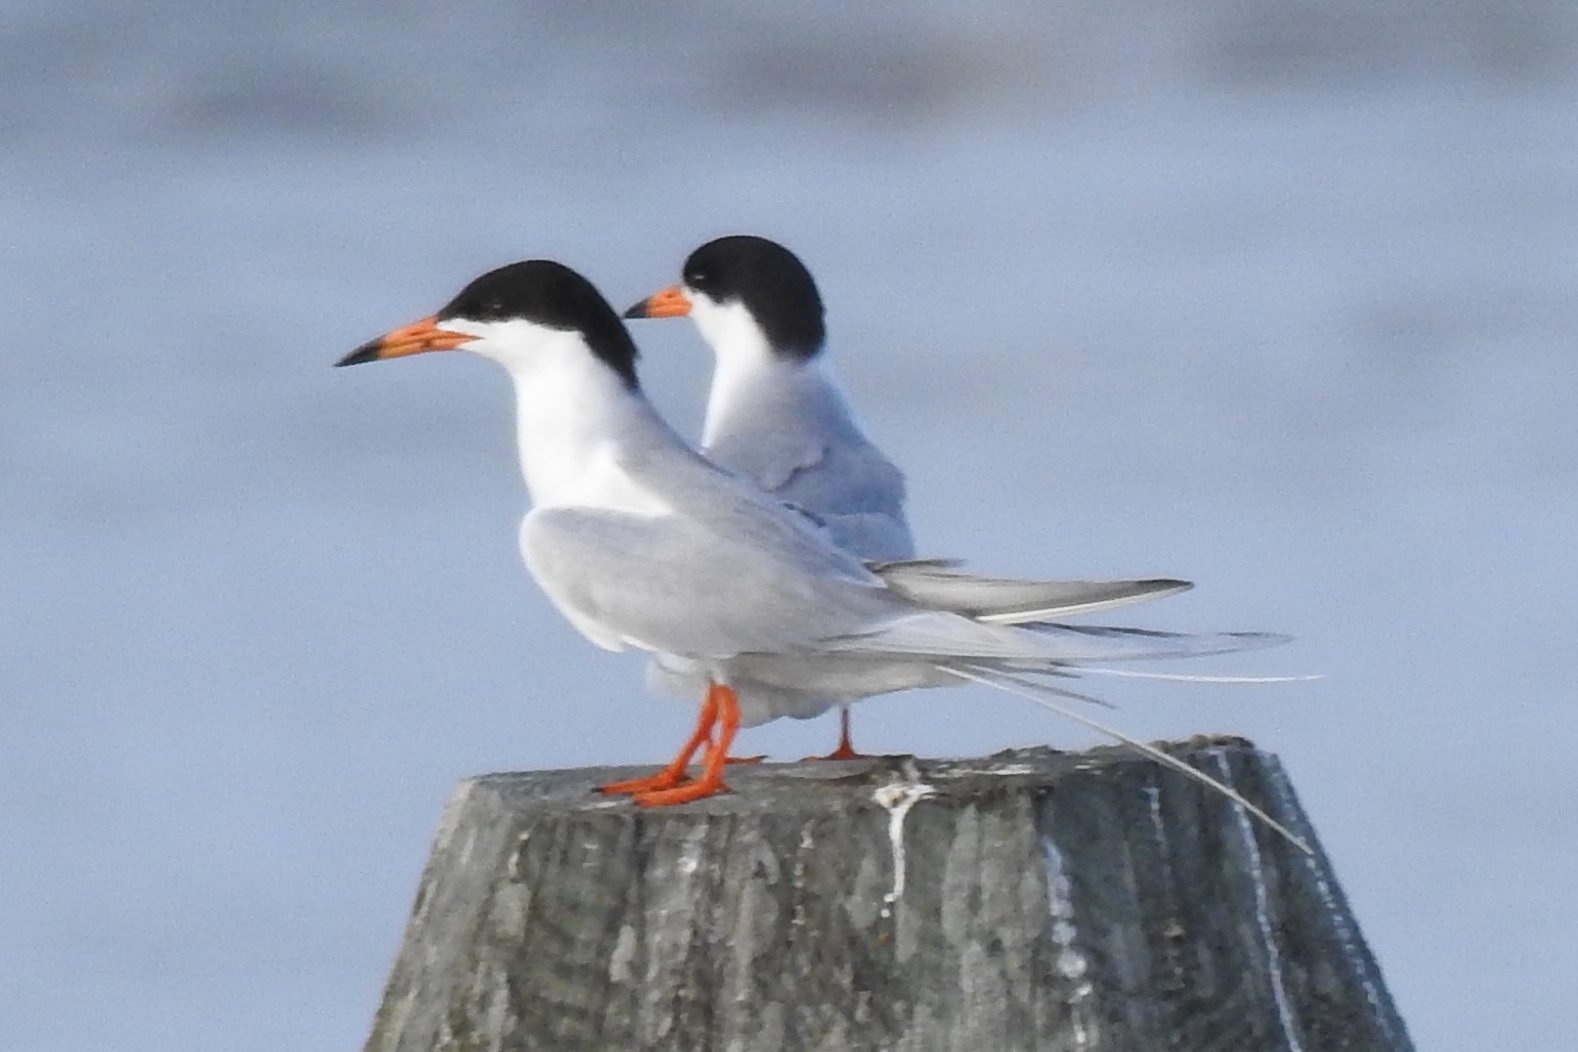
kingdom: Animalia
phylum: Chordata
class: Aves
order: Charadriiformes
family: Laridae
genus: Sterna
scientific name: Sterna forsteri
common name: Forster's tern
